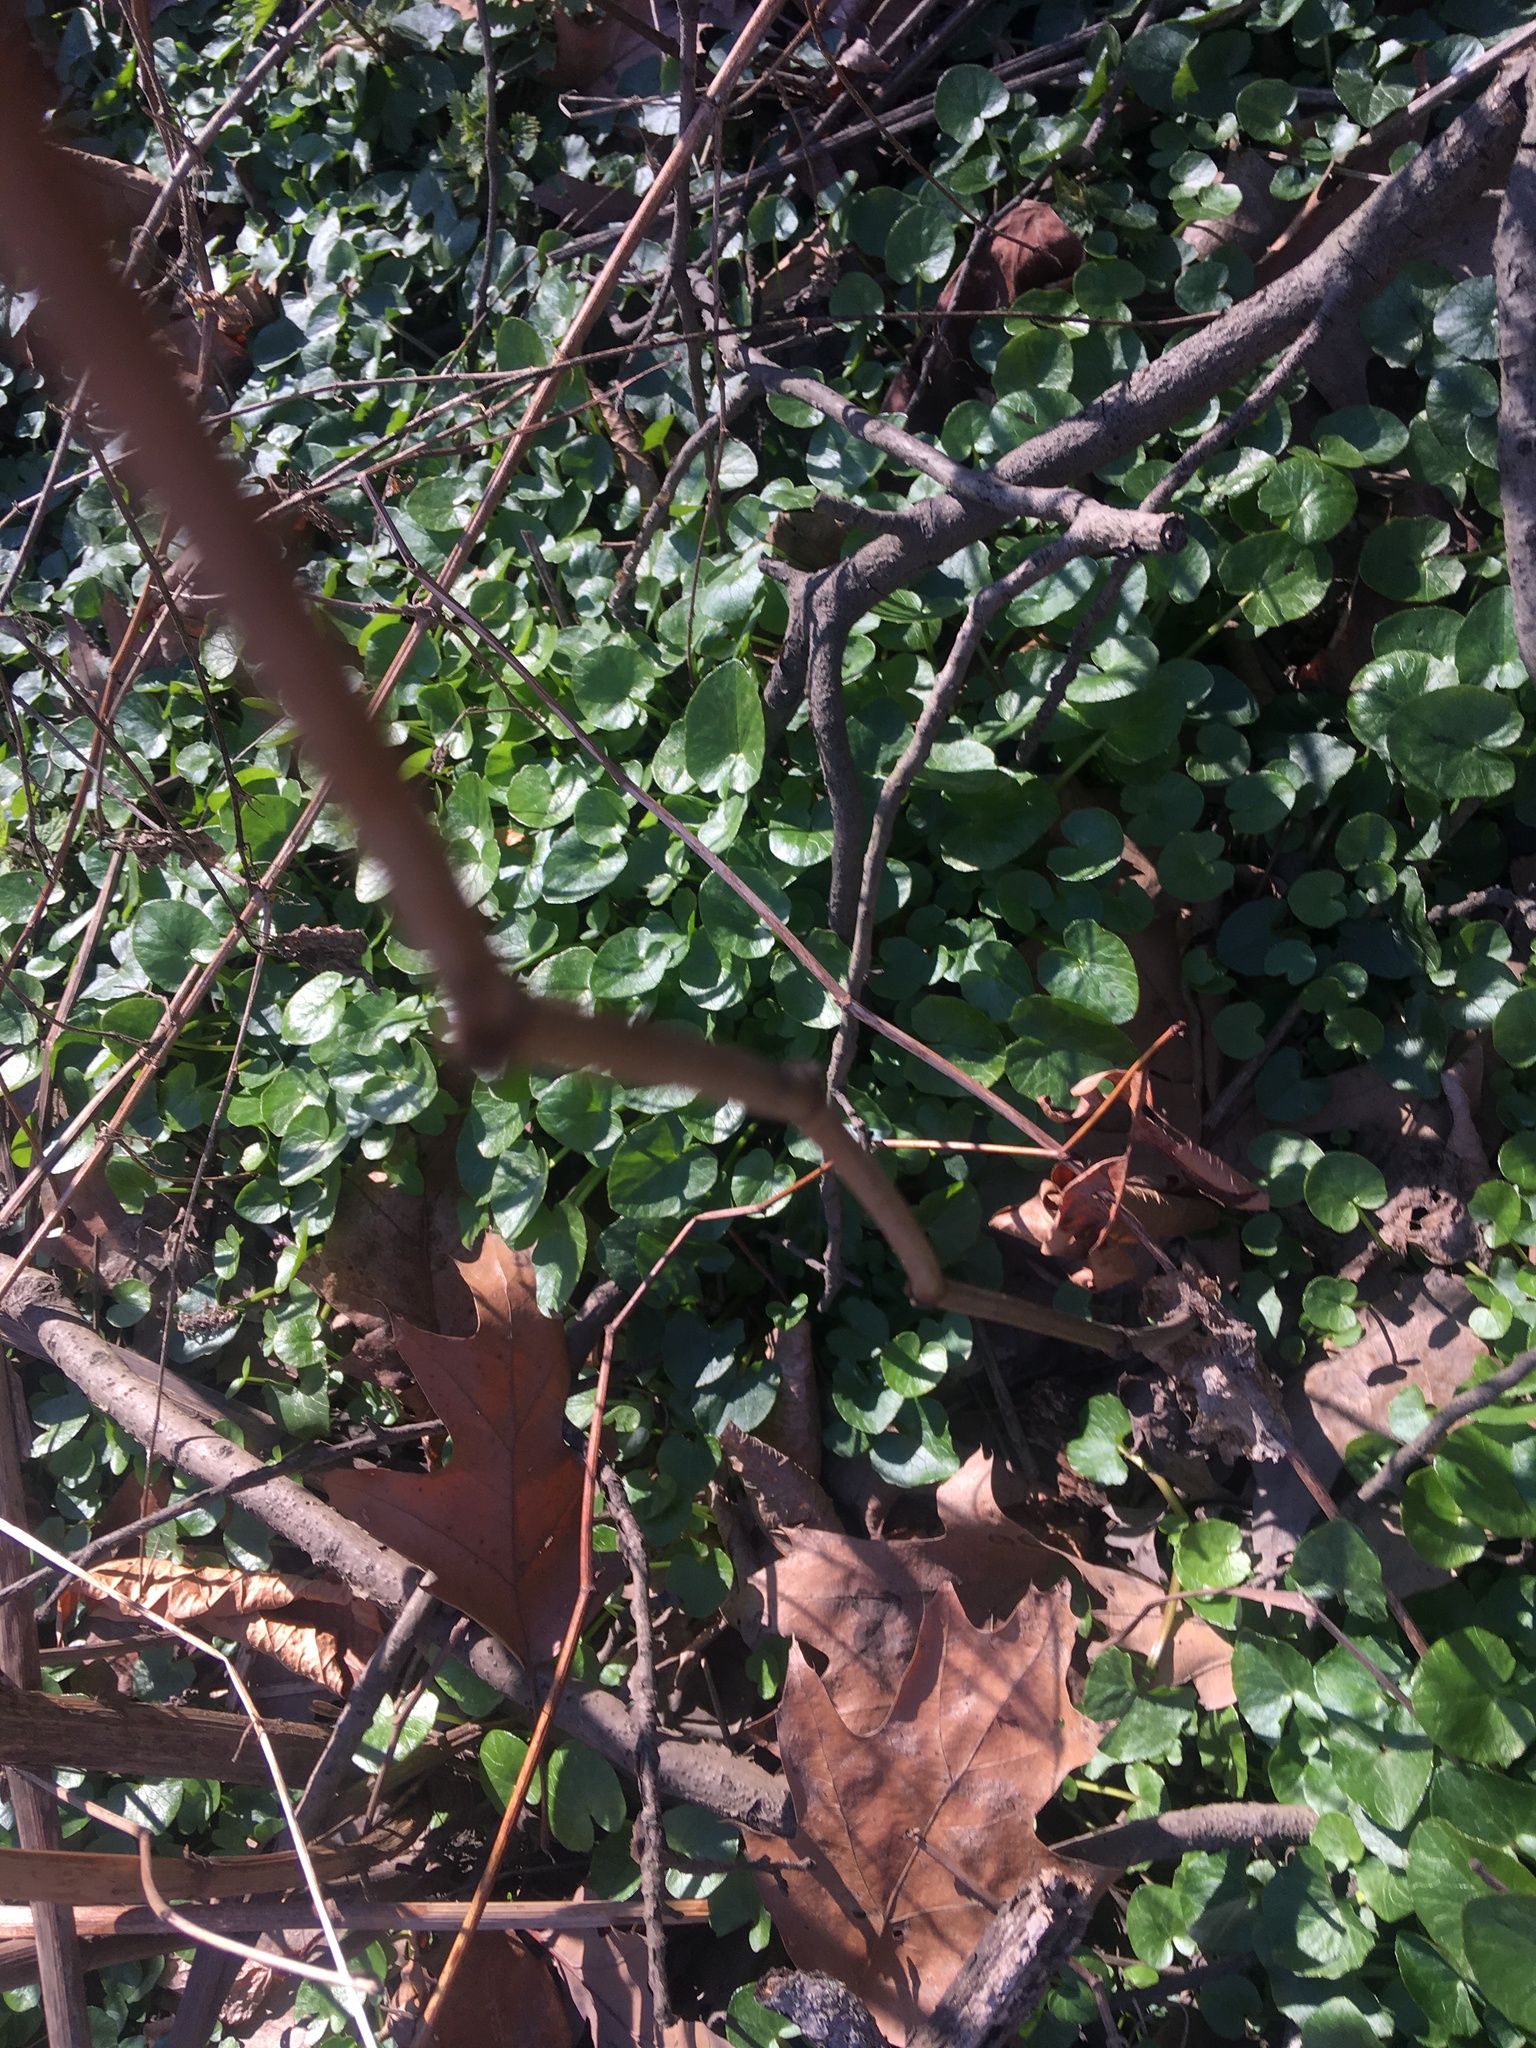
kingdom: Plantae
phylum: Tracheophyta
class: Magnoliopsida
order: Ranunculales
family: Ranunculaceae
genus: Ficaria
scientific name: Ficaria verna
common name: Lesser celandine
